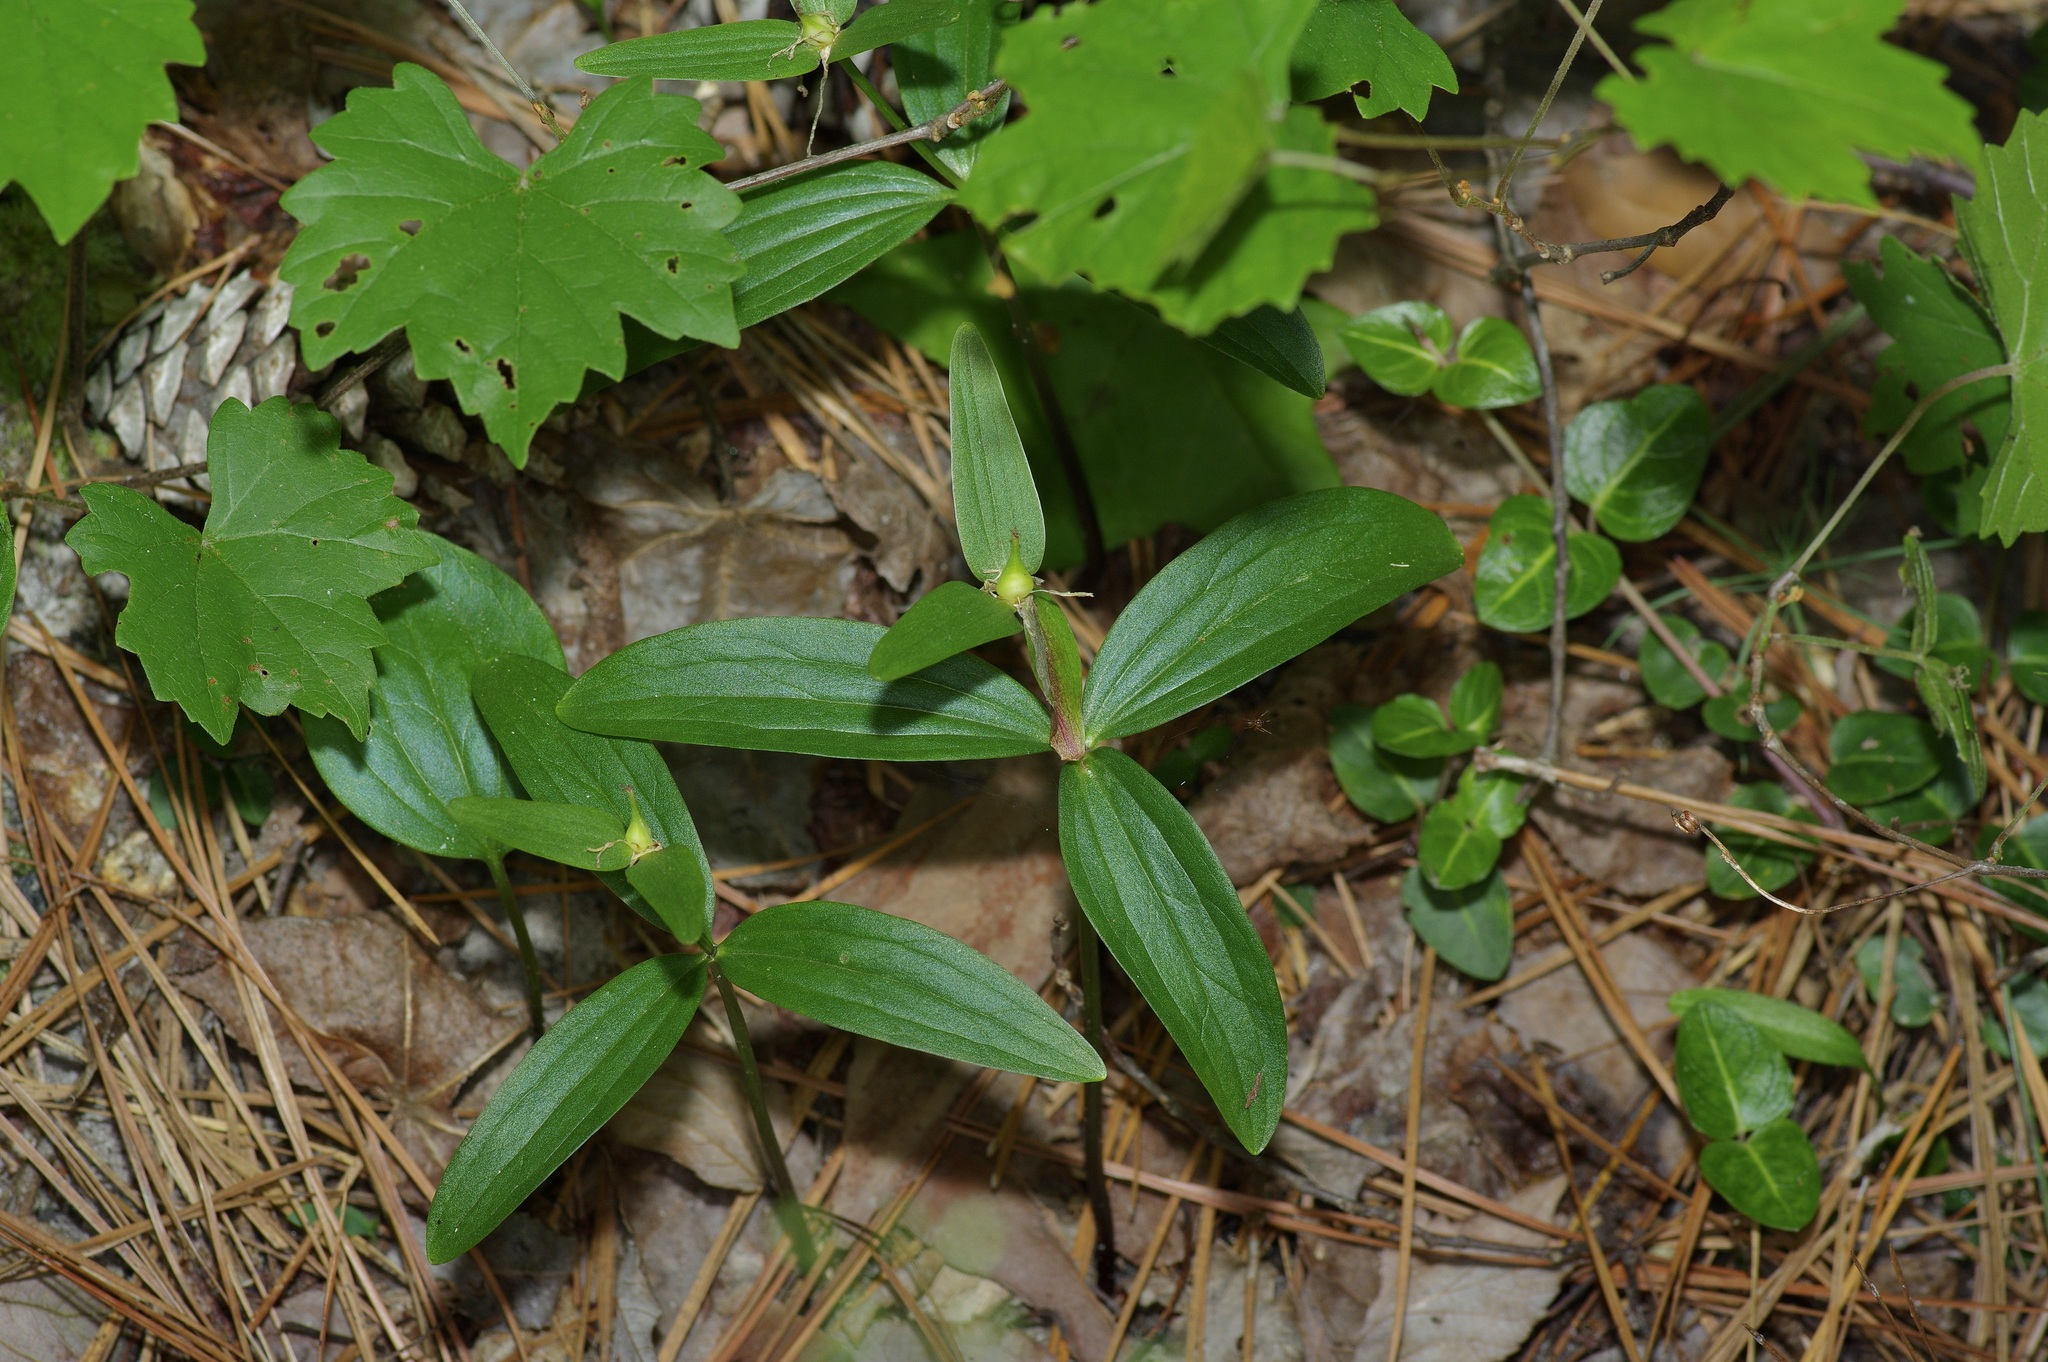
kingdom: Plantae
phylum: Tracheophyta
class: Liliopsida
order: Liliales
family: Melanthiaceae
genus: Trillium
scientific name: Trillium pusillum
